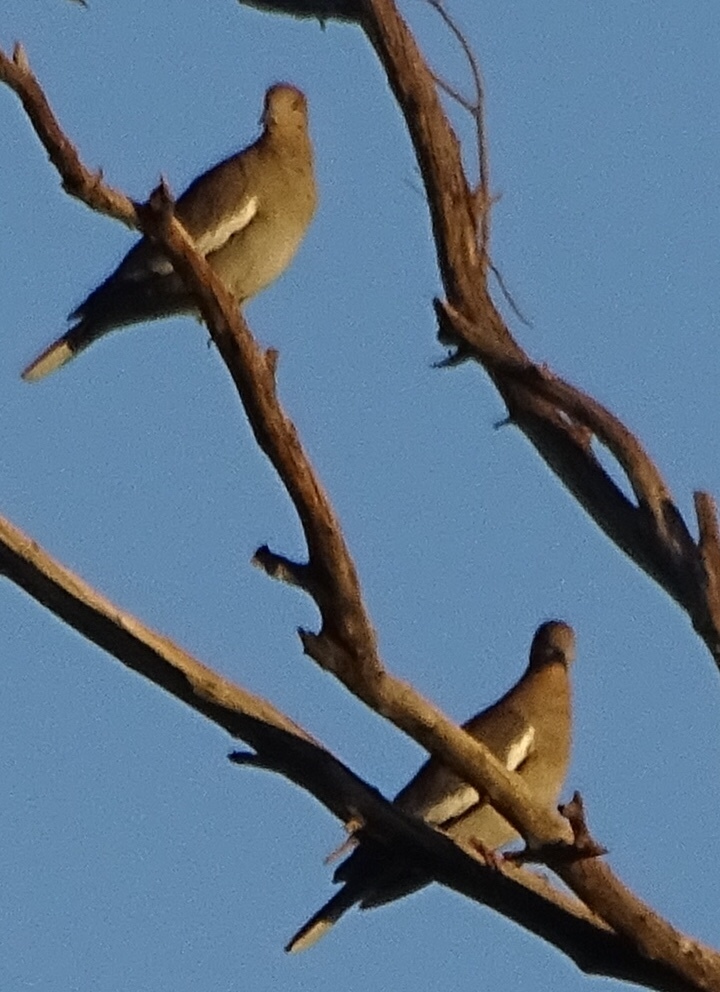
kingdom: Animalia
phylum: Chordata
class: Aves
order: Columbiformes
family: Columbidae
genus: Zenaida
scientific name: Zenaida asiatica
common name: White-winged dove
